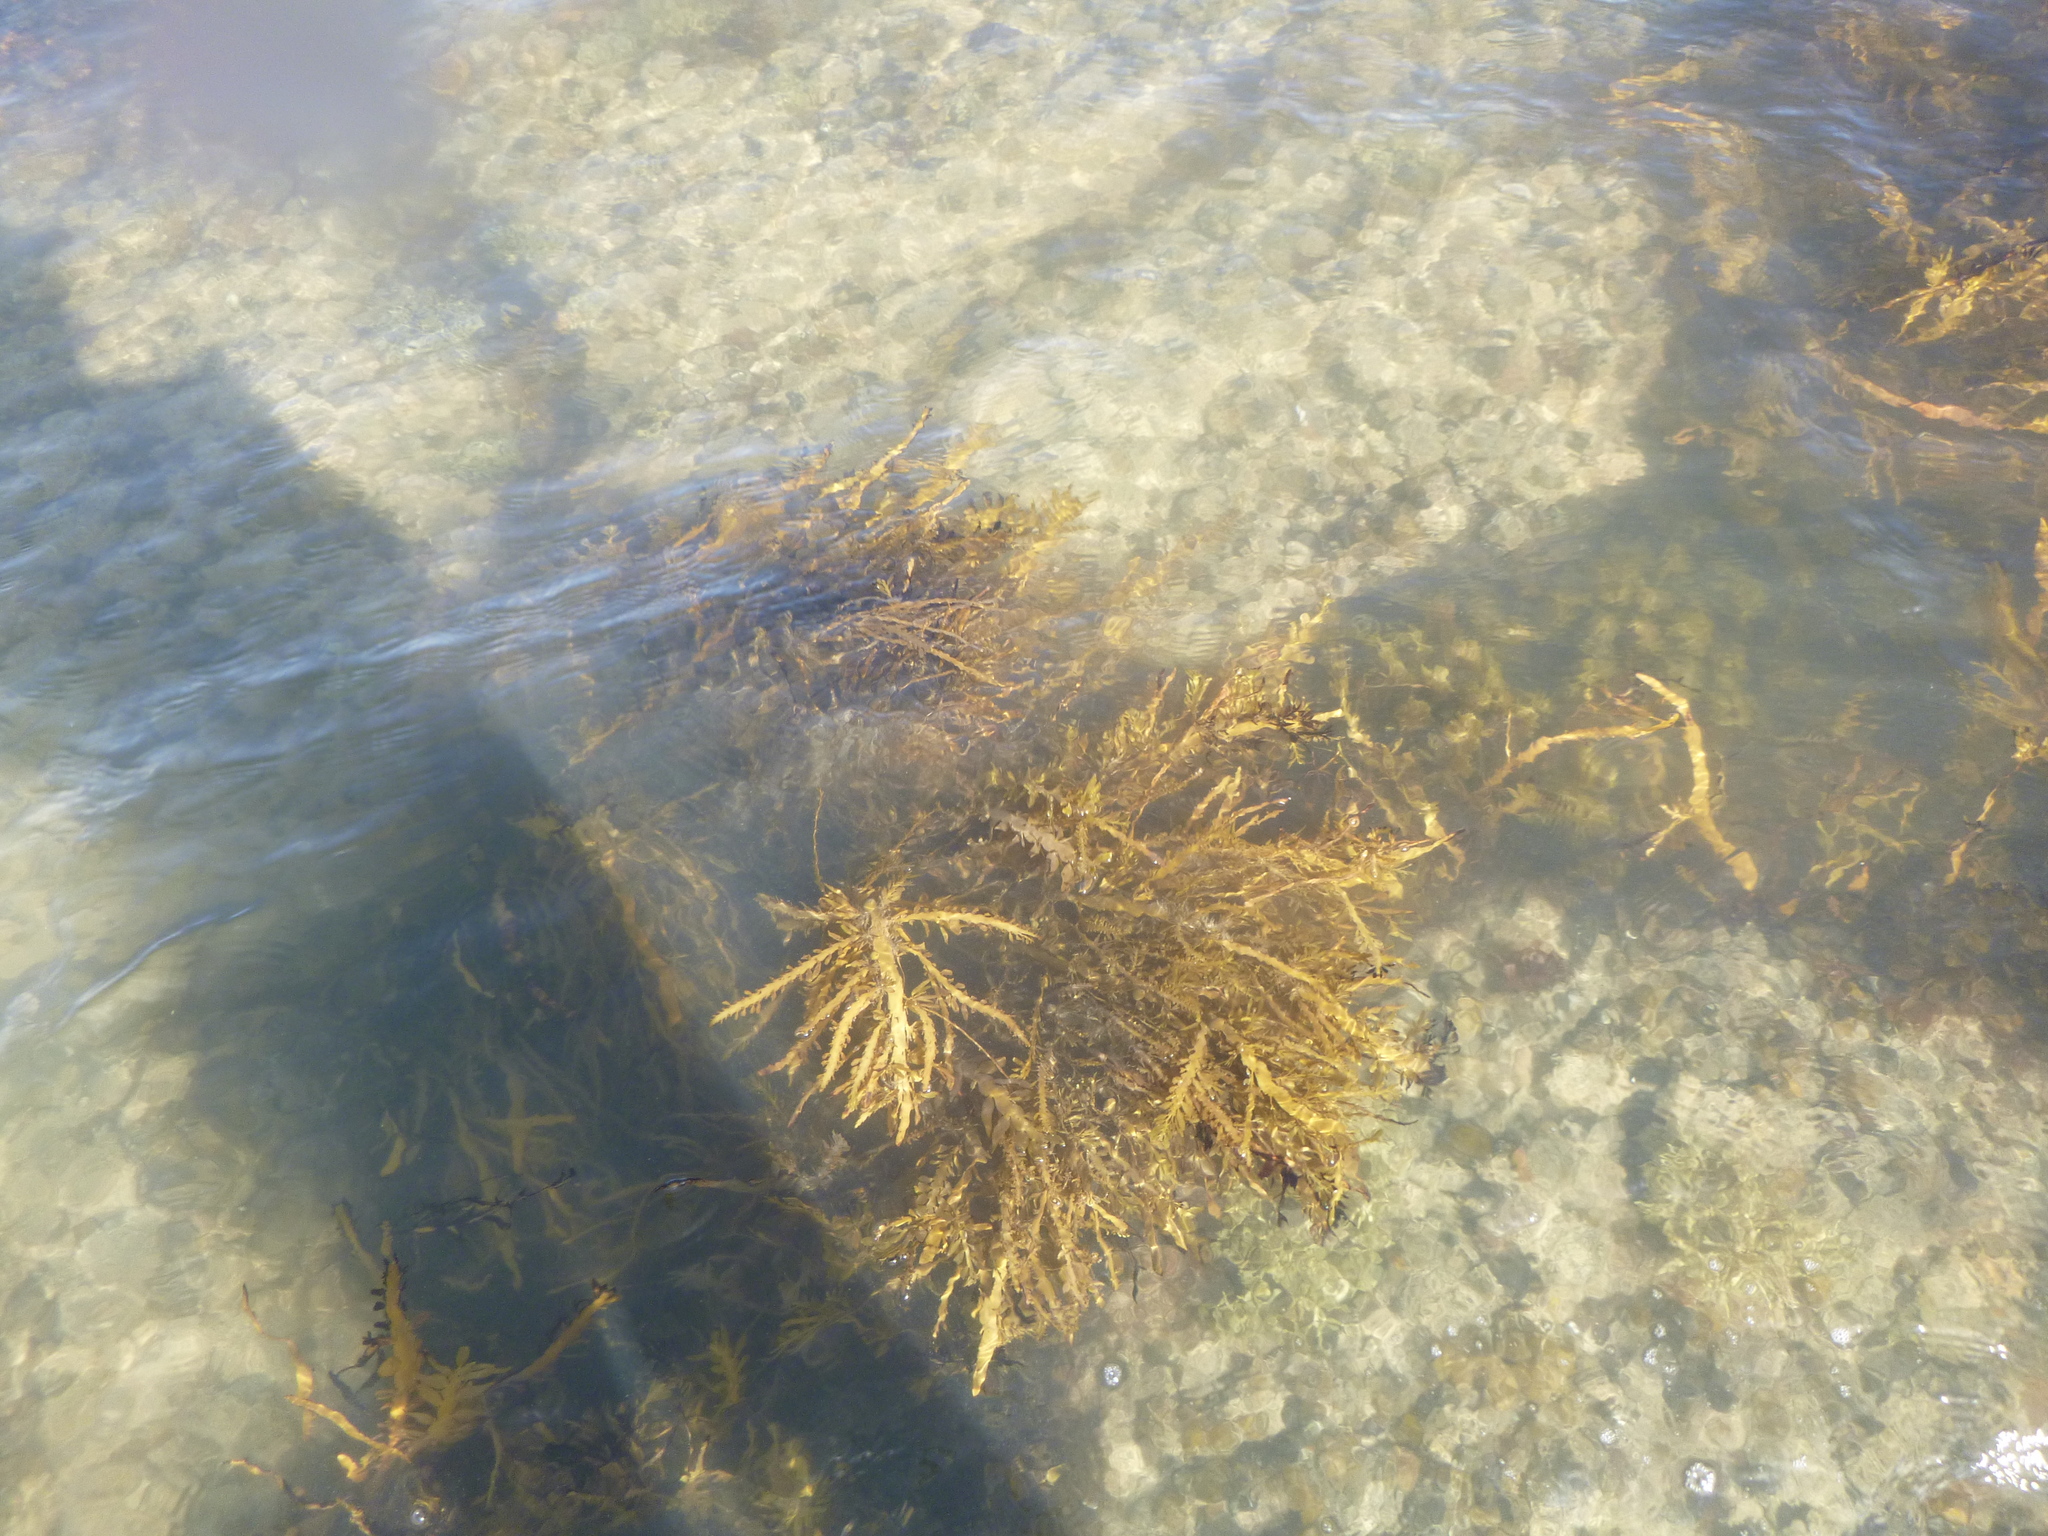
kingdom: Chromista
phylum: Ochrophyta
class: Phaeophyceae
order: Fucales
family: Sargassaceae
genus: Carpophyllum
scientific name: Carpophyllum maschalocarpum
